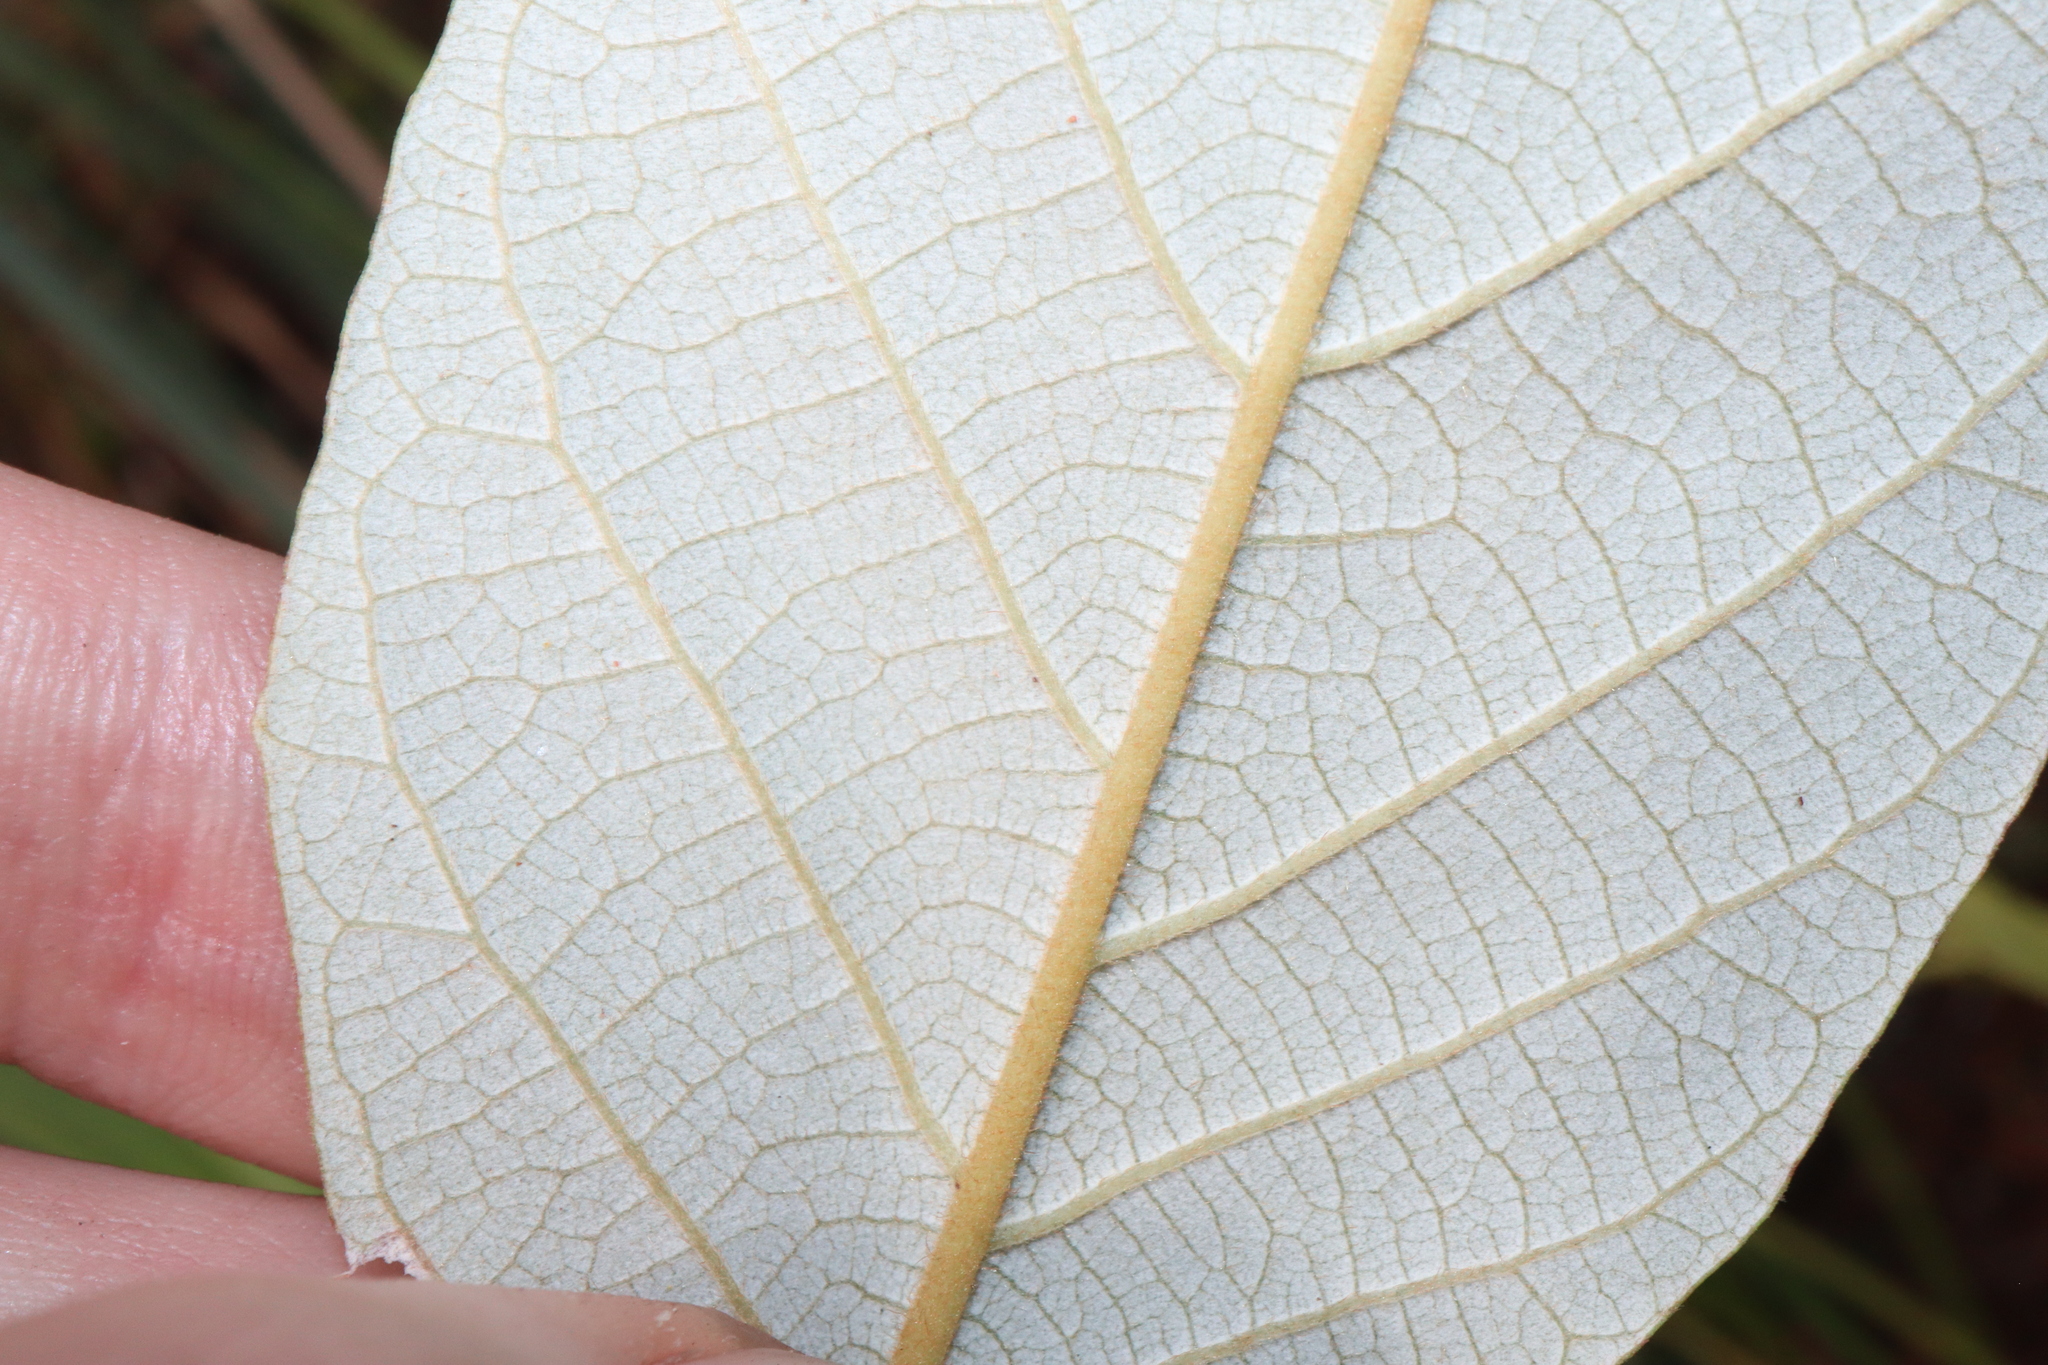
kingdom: Plantae
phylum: Tracheophyta
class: Magnoliopsida
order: Rosales
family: Rhamnaceae
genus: Alphitonia
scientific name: Alphitonia excelsa
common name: Red ash
